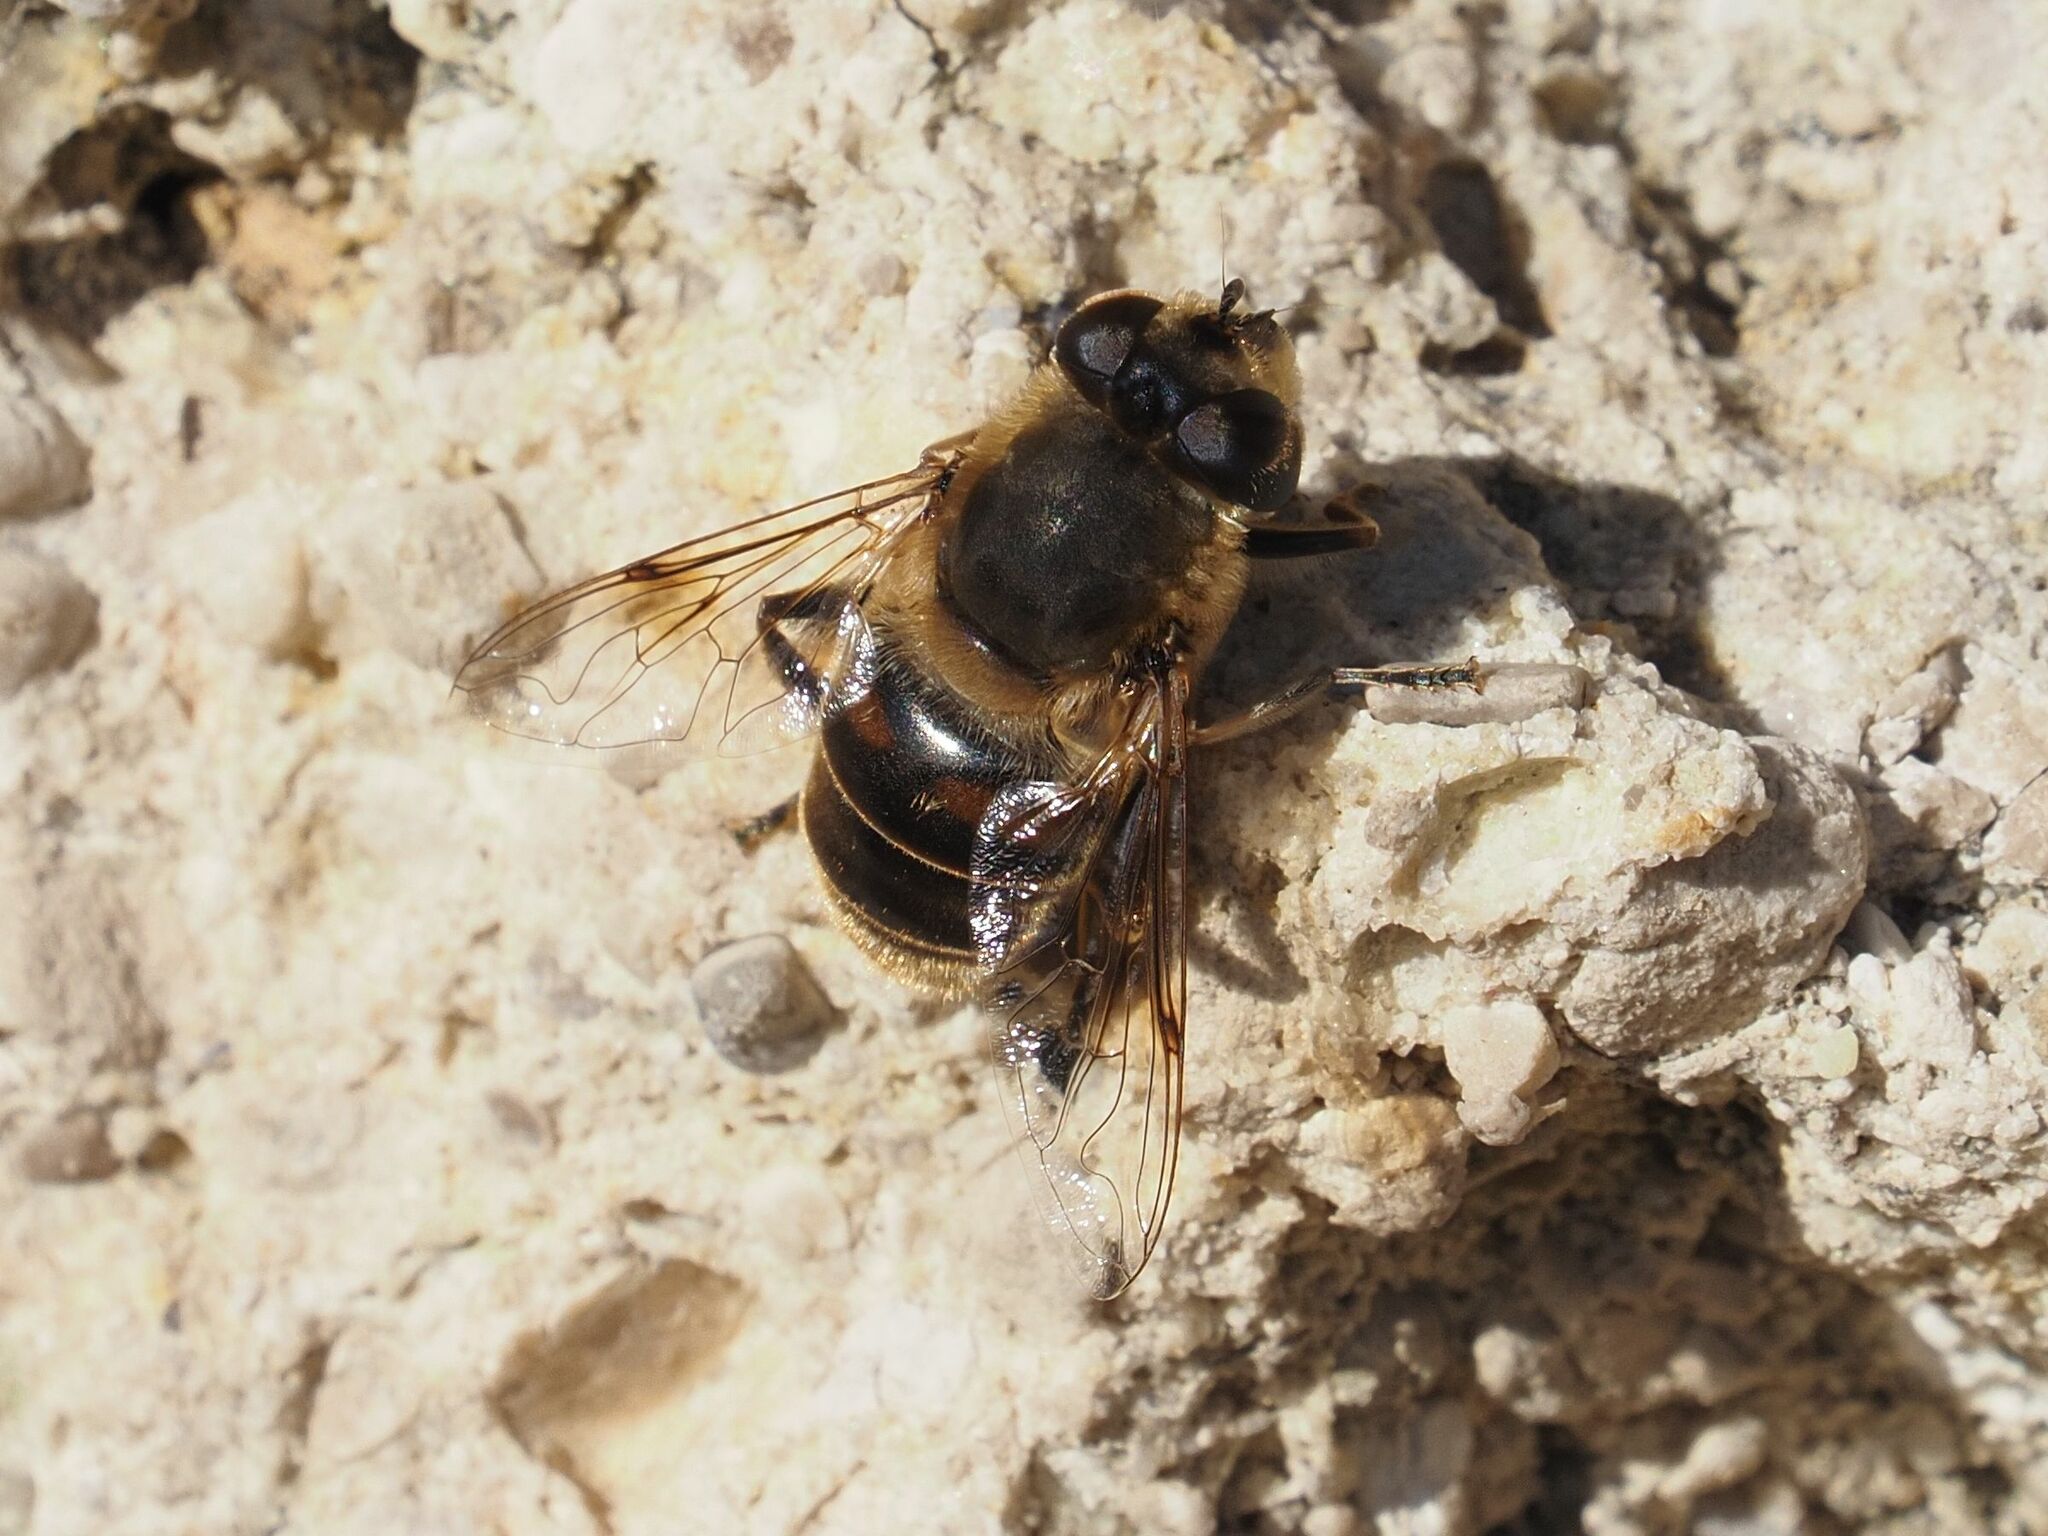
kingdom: Animalia
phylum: Arthropoda
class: Insecta
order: Diptera
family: Syrphidae
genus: Eristalis
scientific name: Eristalis tenax
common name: Drone fly
